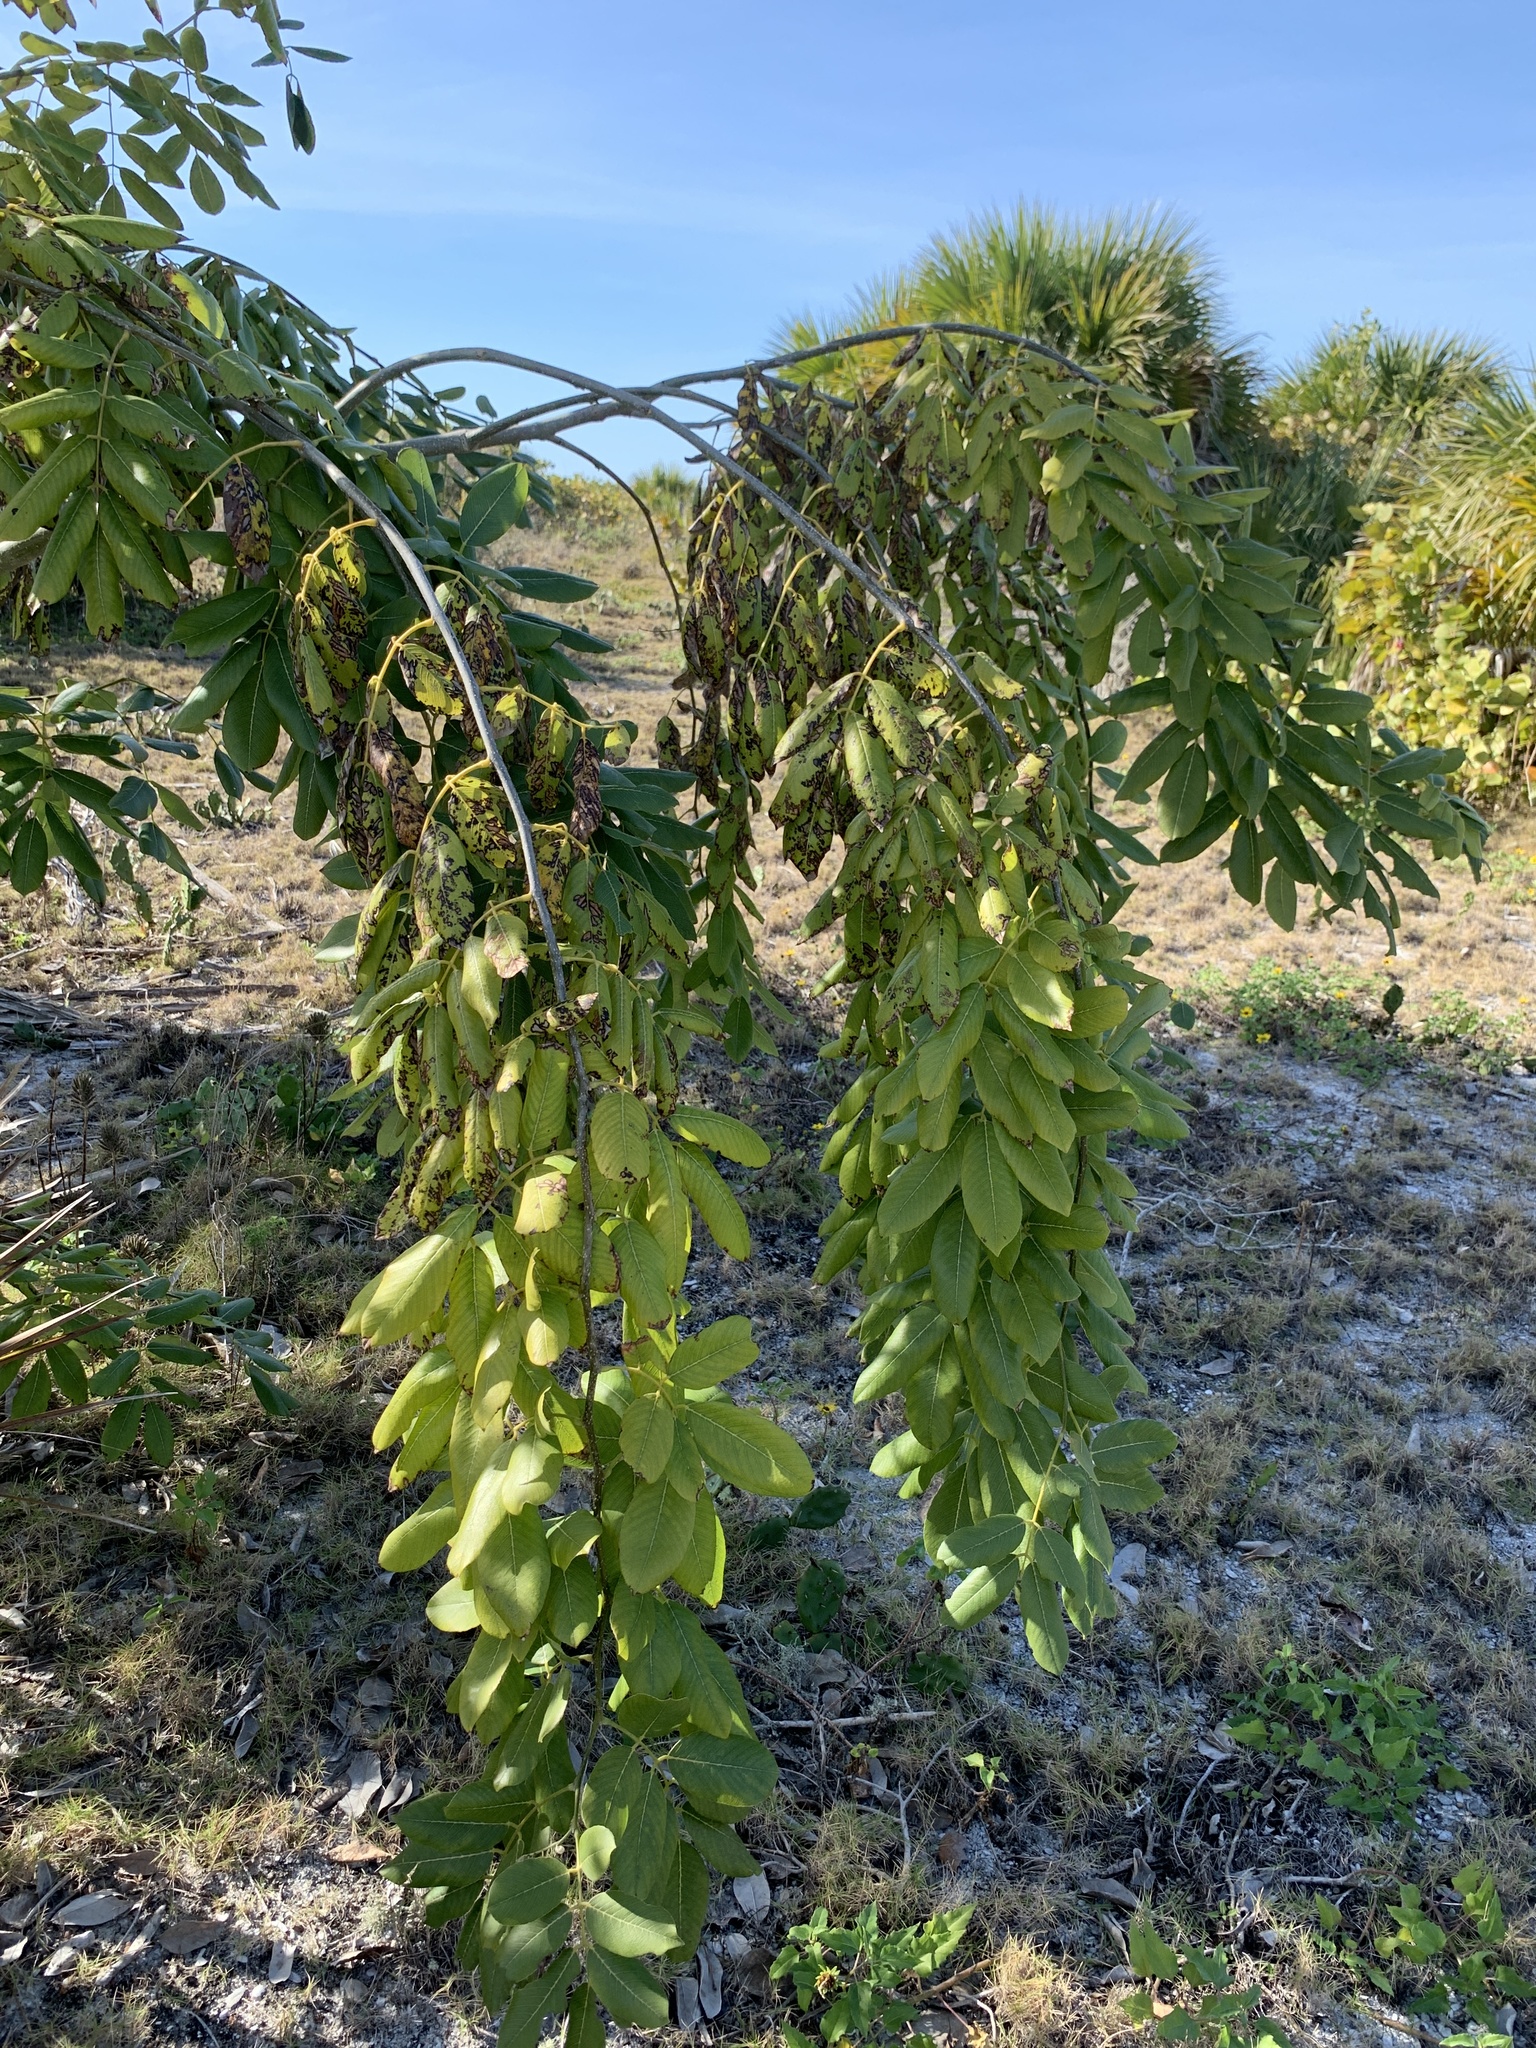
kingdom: Plantae
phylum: Tracheophyta
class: Magnoliopsida
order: Fabales
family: Fabaceae
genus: Piscidia
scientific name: Piscidia piscipula
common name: Florida fishpoison tree
